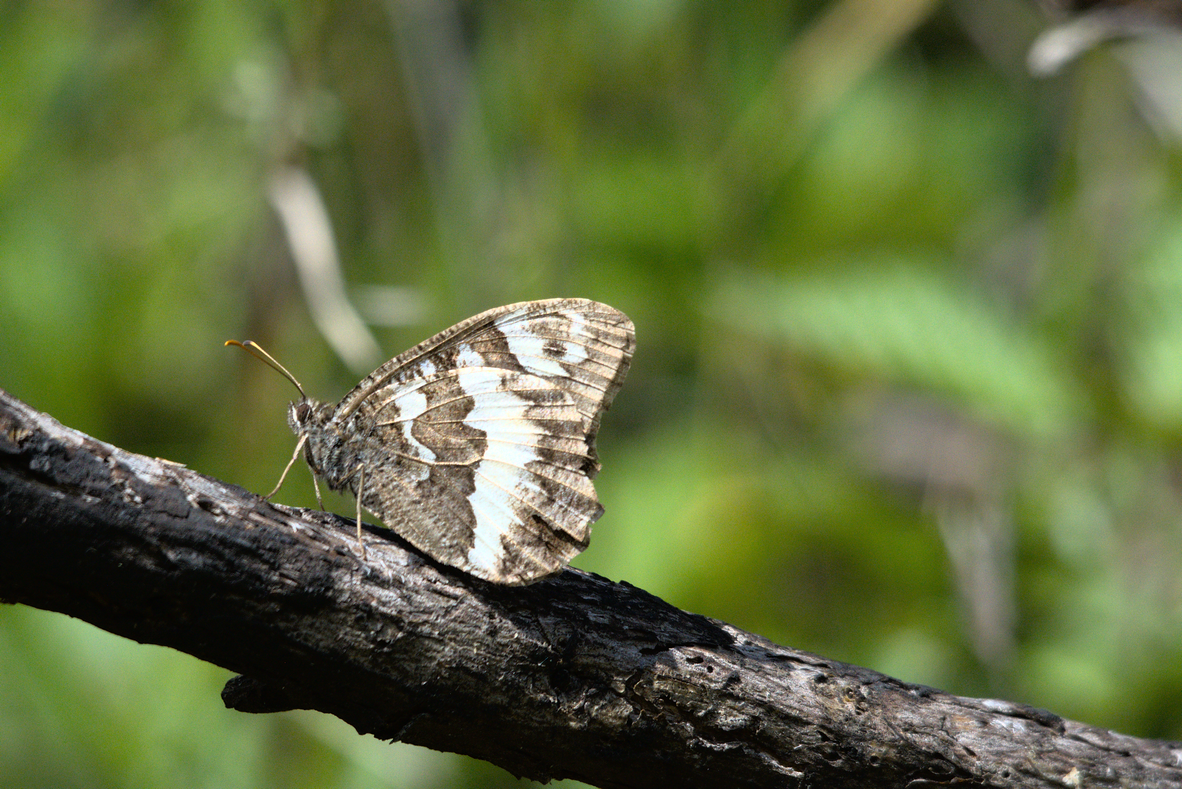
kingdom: Animalia
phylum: Arthropoda
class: Insecta
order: Lepidoptera
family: Lycaenidae
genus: Loweia
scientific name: Loweia tityrus
